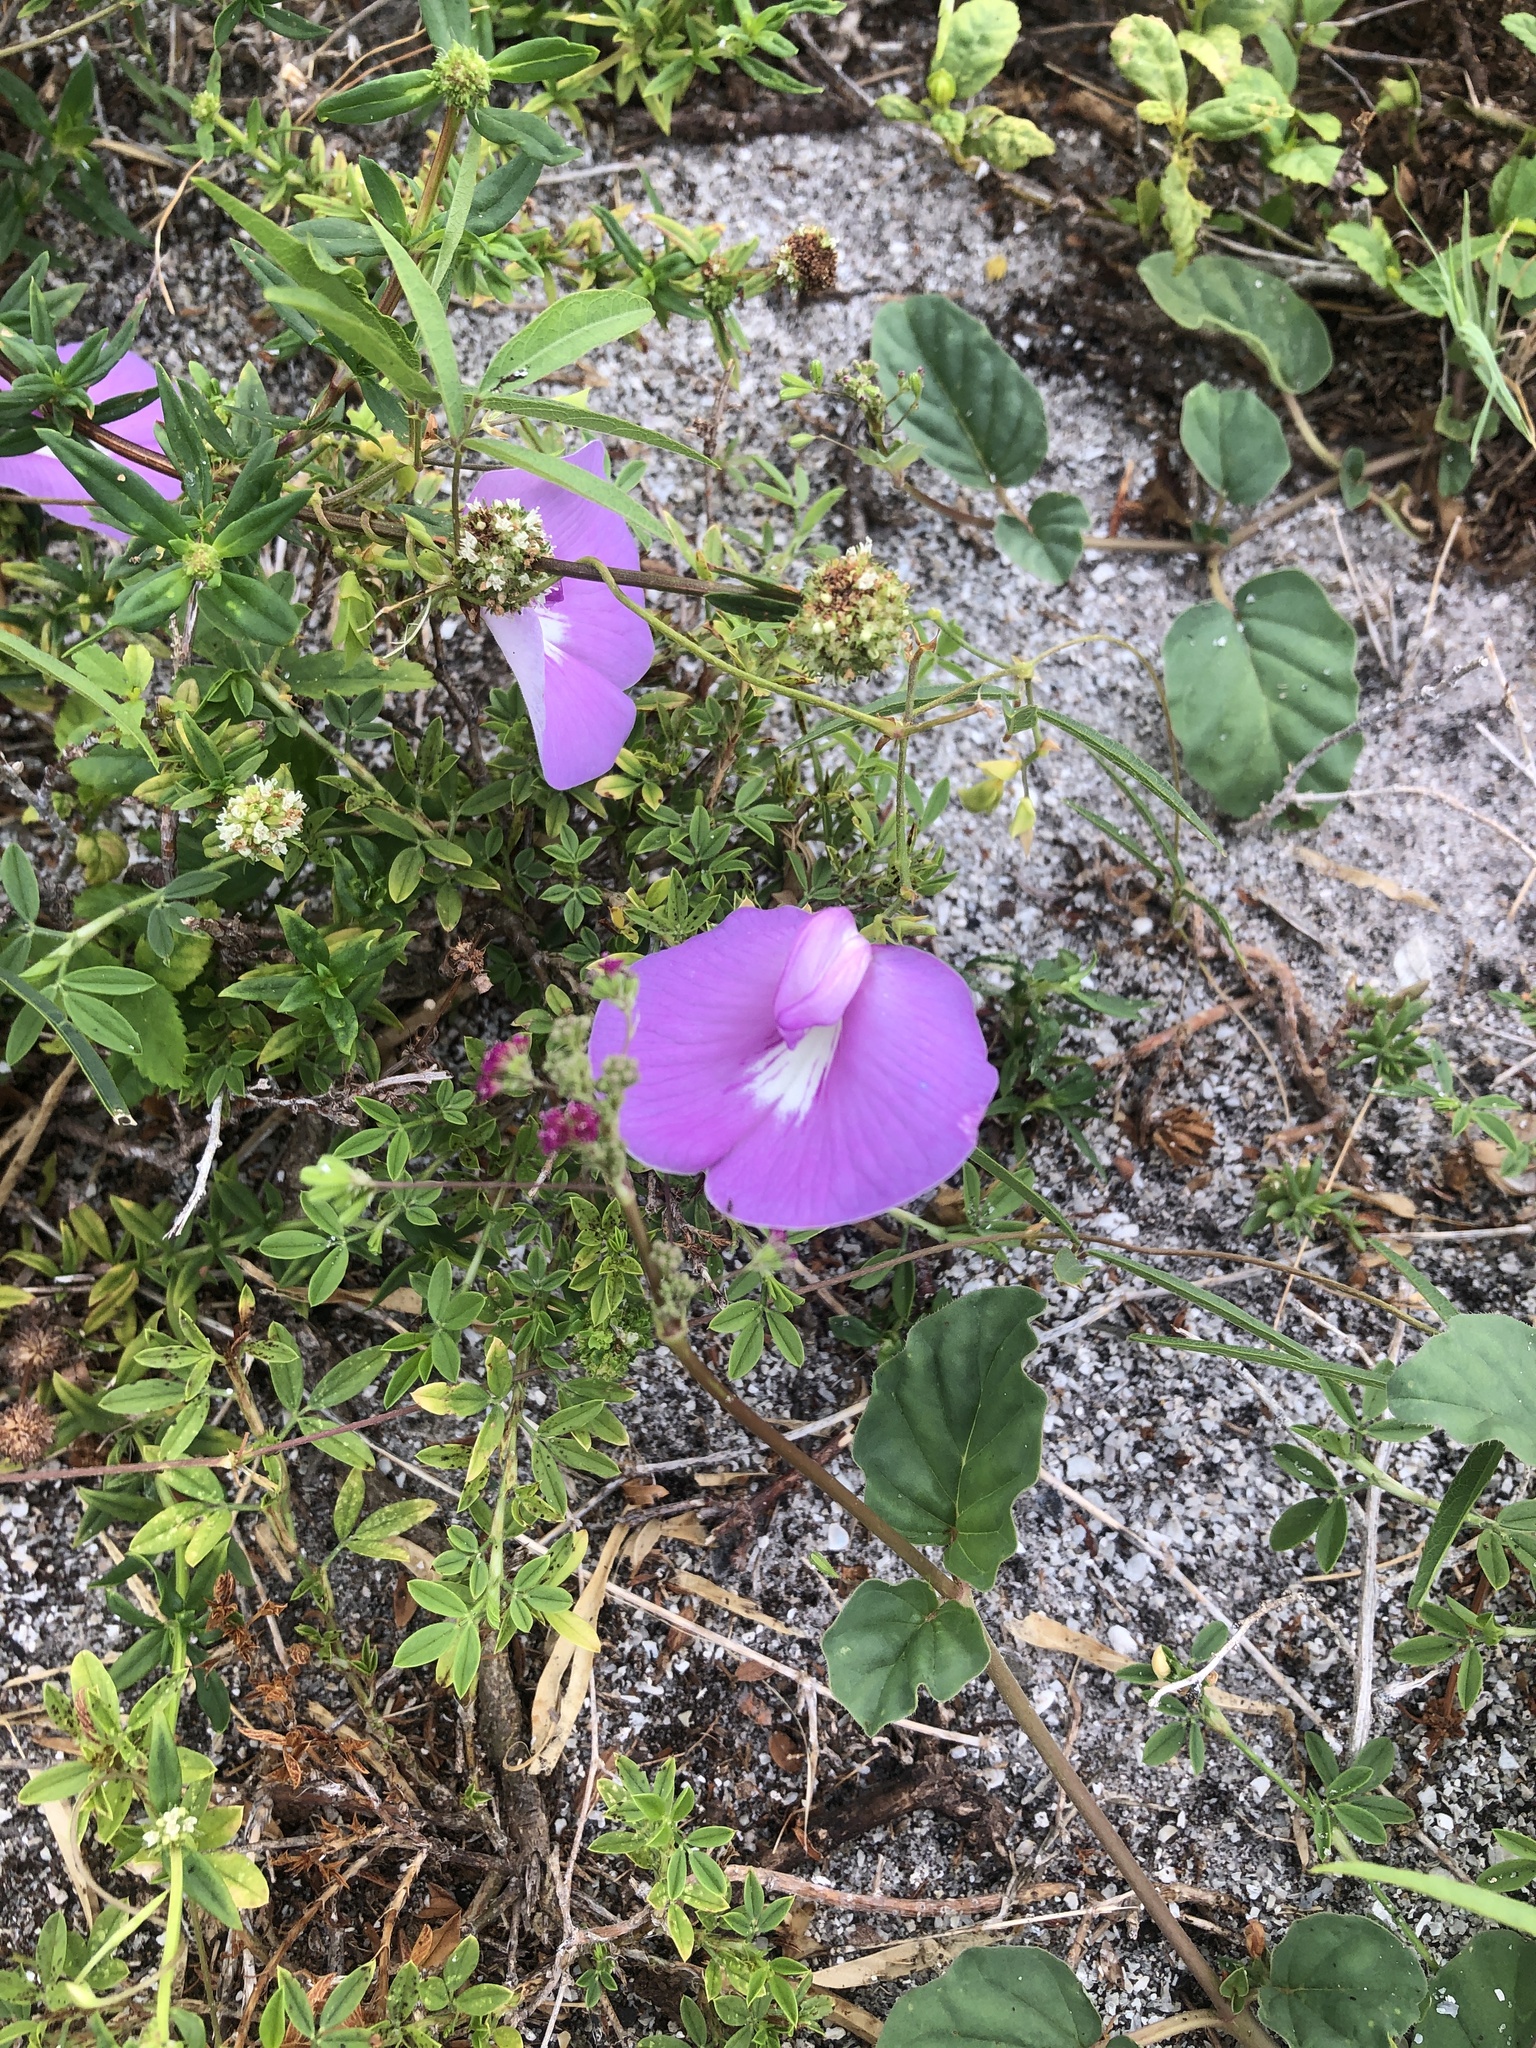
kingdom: Plantae
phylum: Tracheophyta
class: Magnoliopsida
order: Fabales
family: Fabaceae
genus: Centrosema
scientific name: Centrosema virginianum
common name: Butterfly-pea
